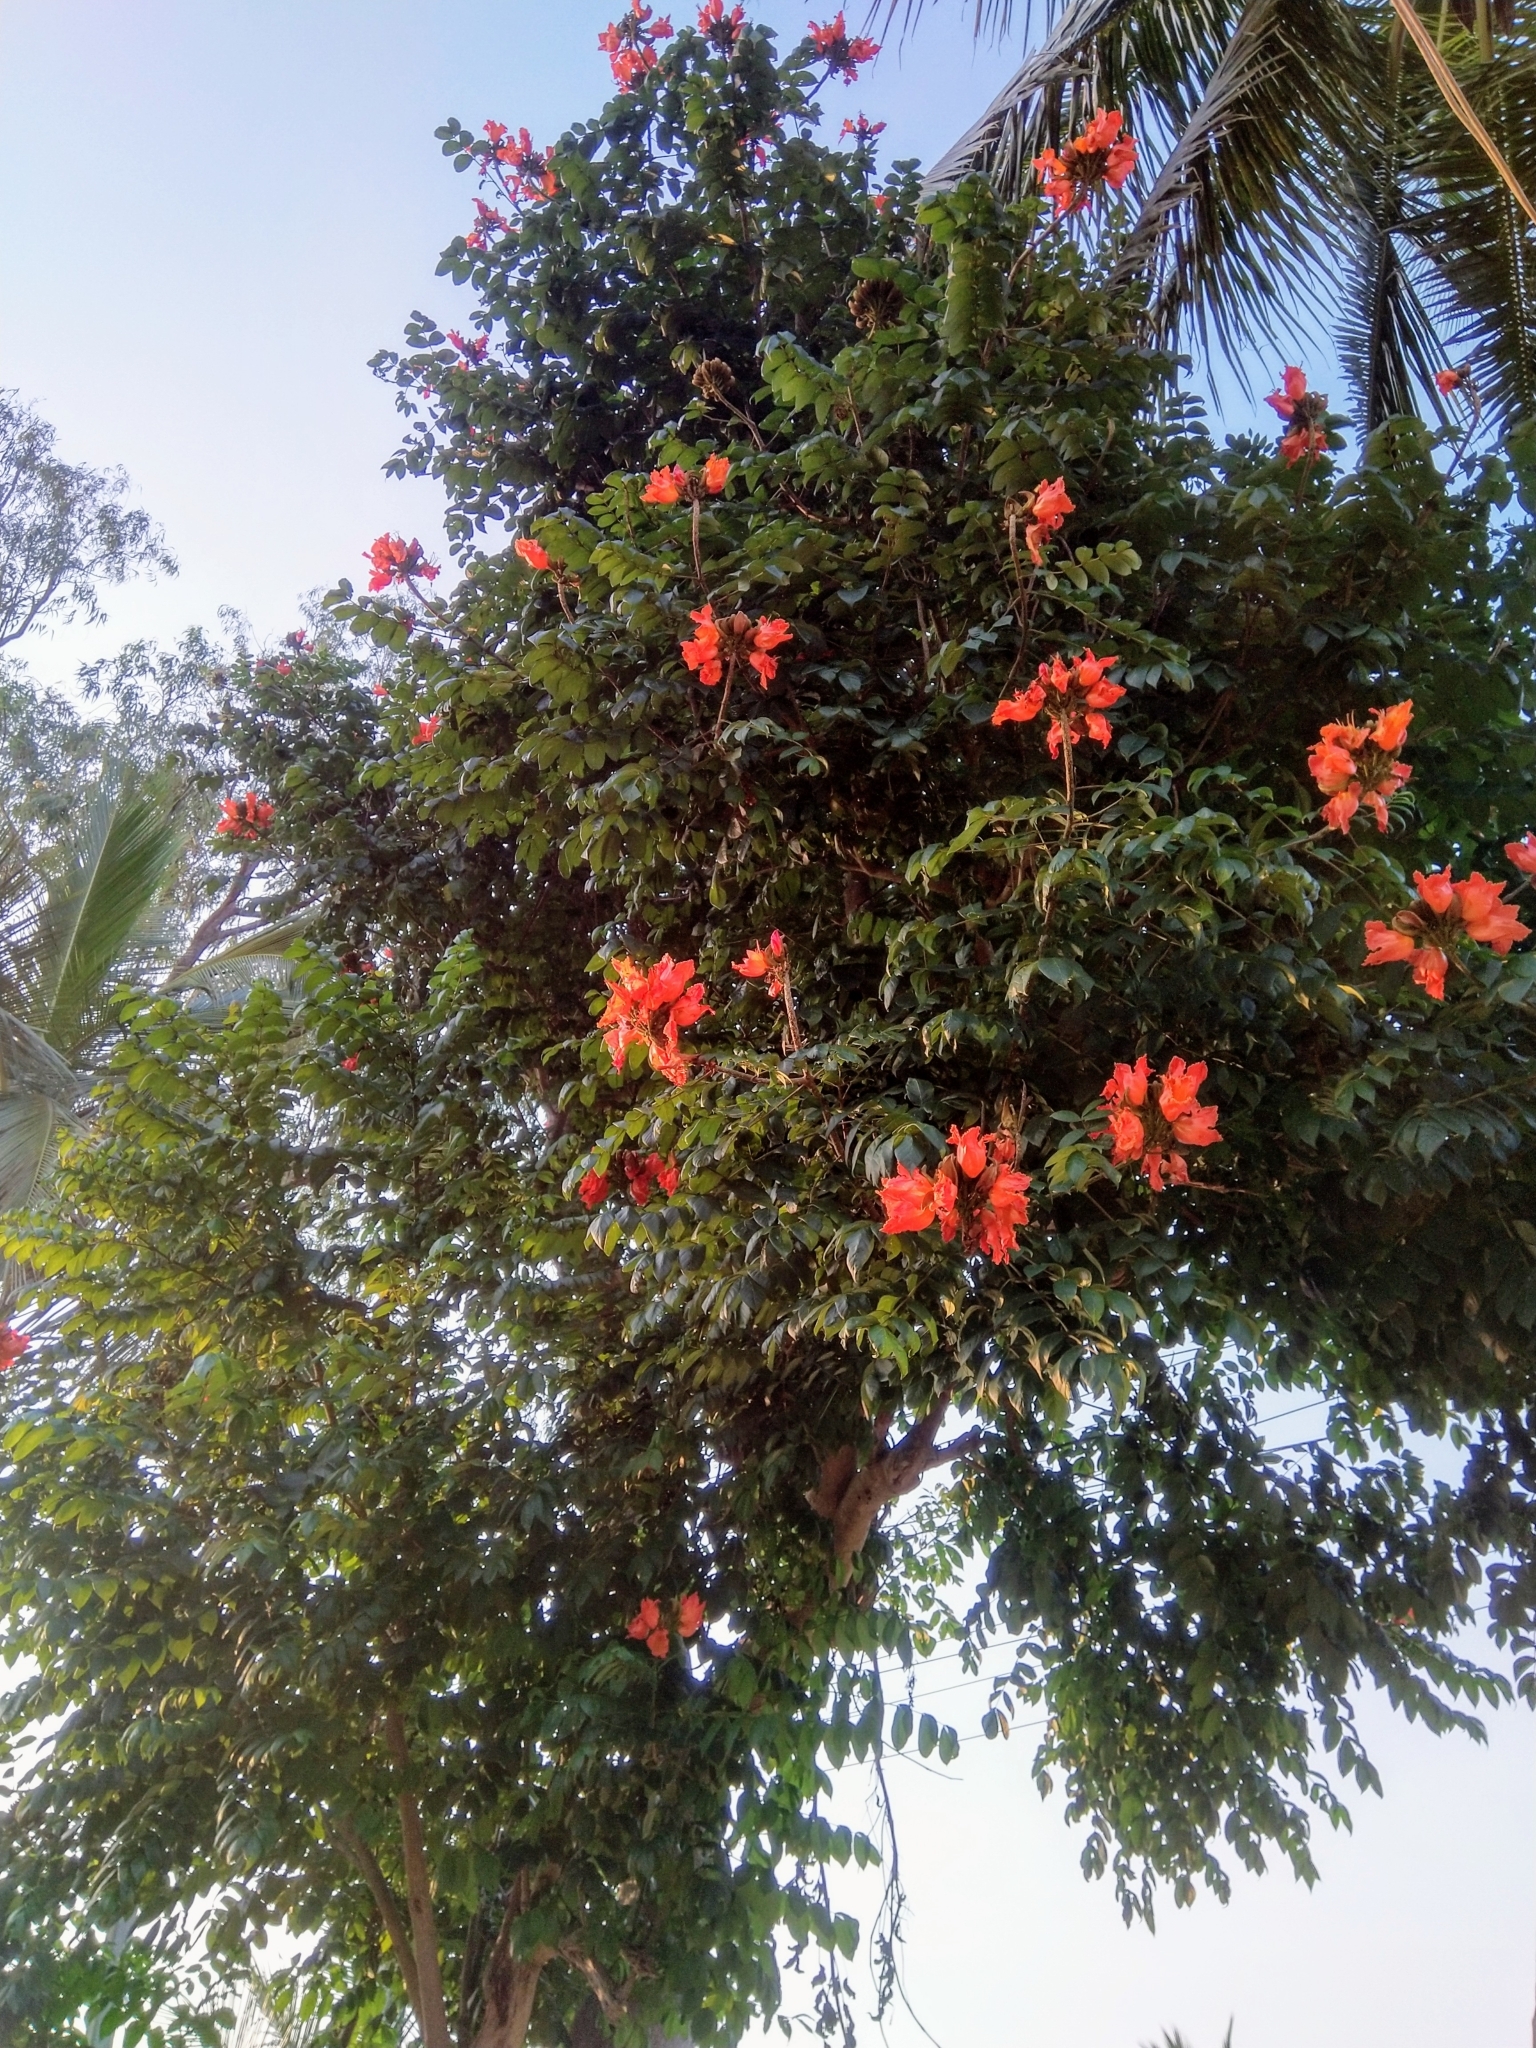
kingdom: Plantae
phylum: Tracheophyta
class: Magnoliopsida
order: Lamiales
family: Bignoniaceae
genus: Spathodea
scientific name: Spathodea campanulata
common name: African tuliptree
